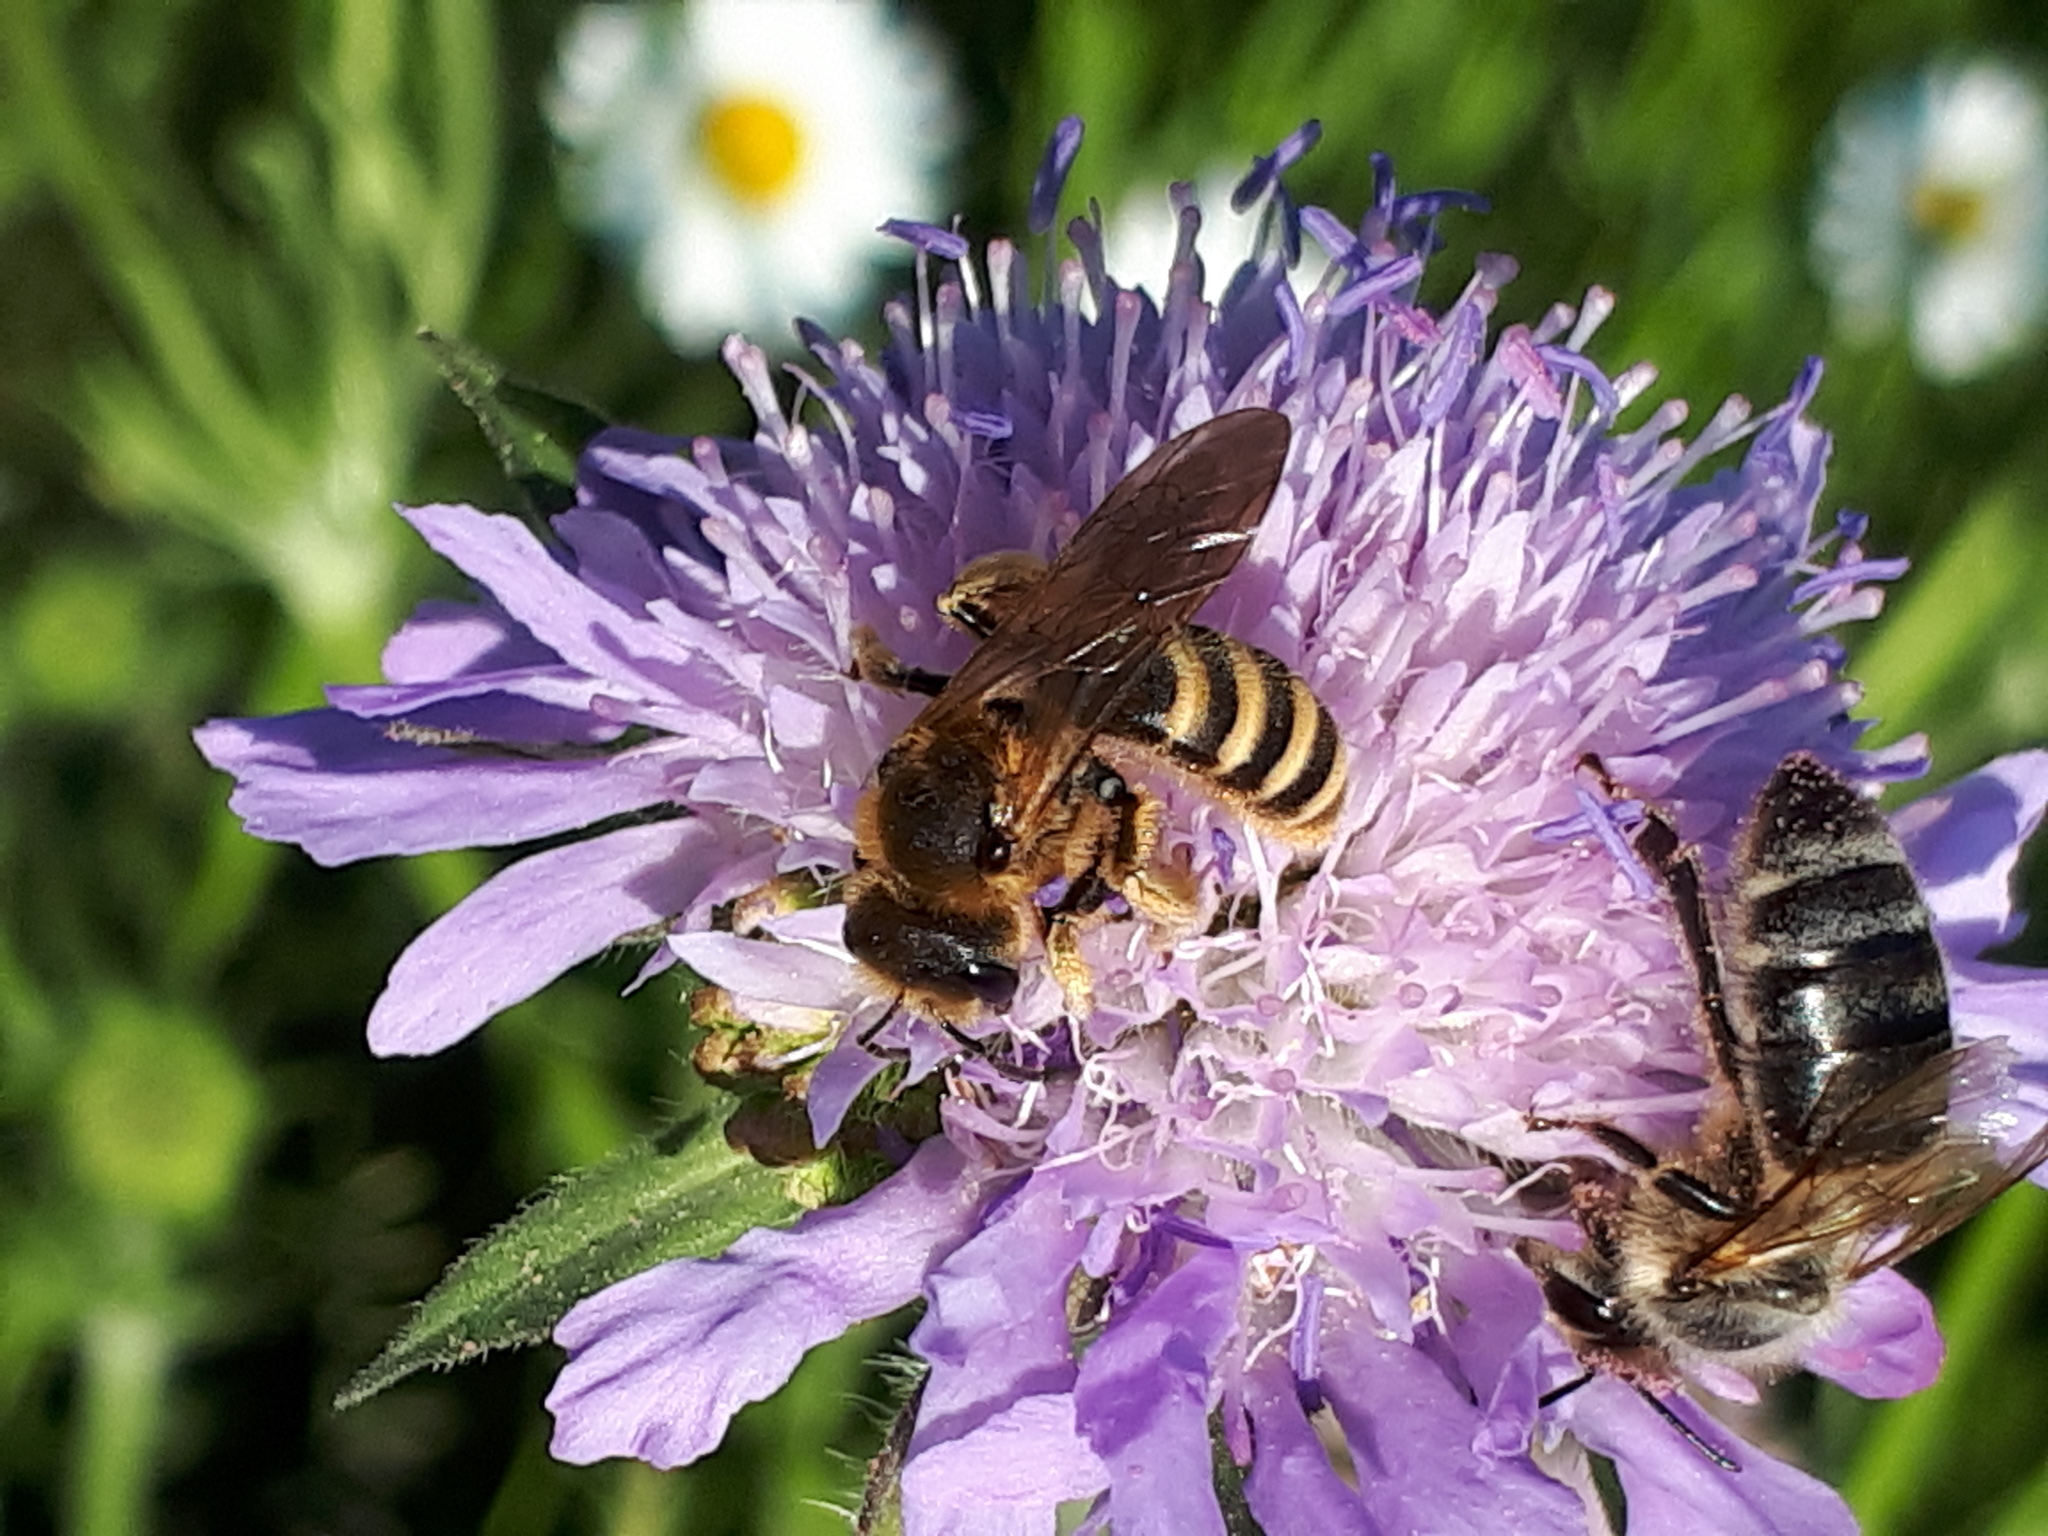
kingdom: Animalia
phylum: Arthropoda
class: Insecta
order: Hymenoptera
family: Halictidae
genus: Halictus
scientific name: Halictus scabiosae
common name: Great banded furrow bee
